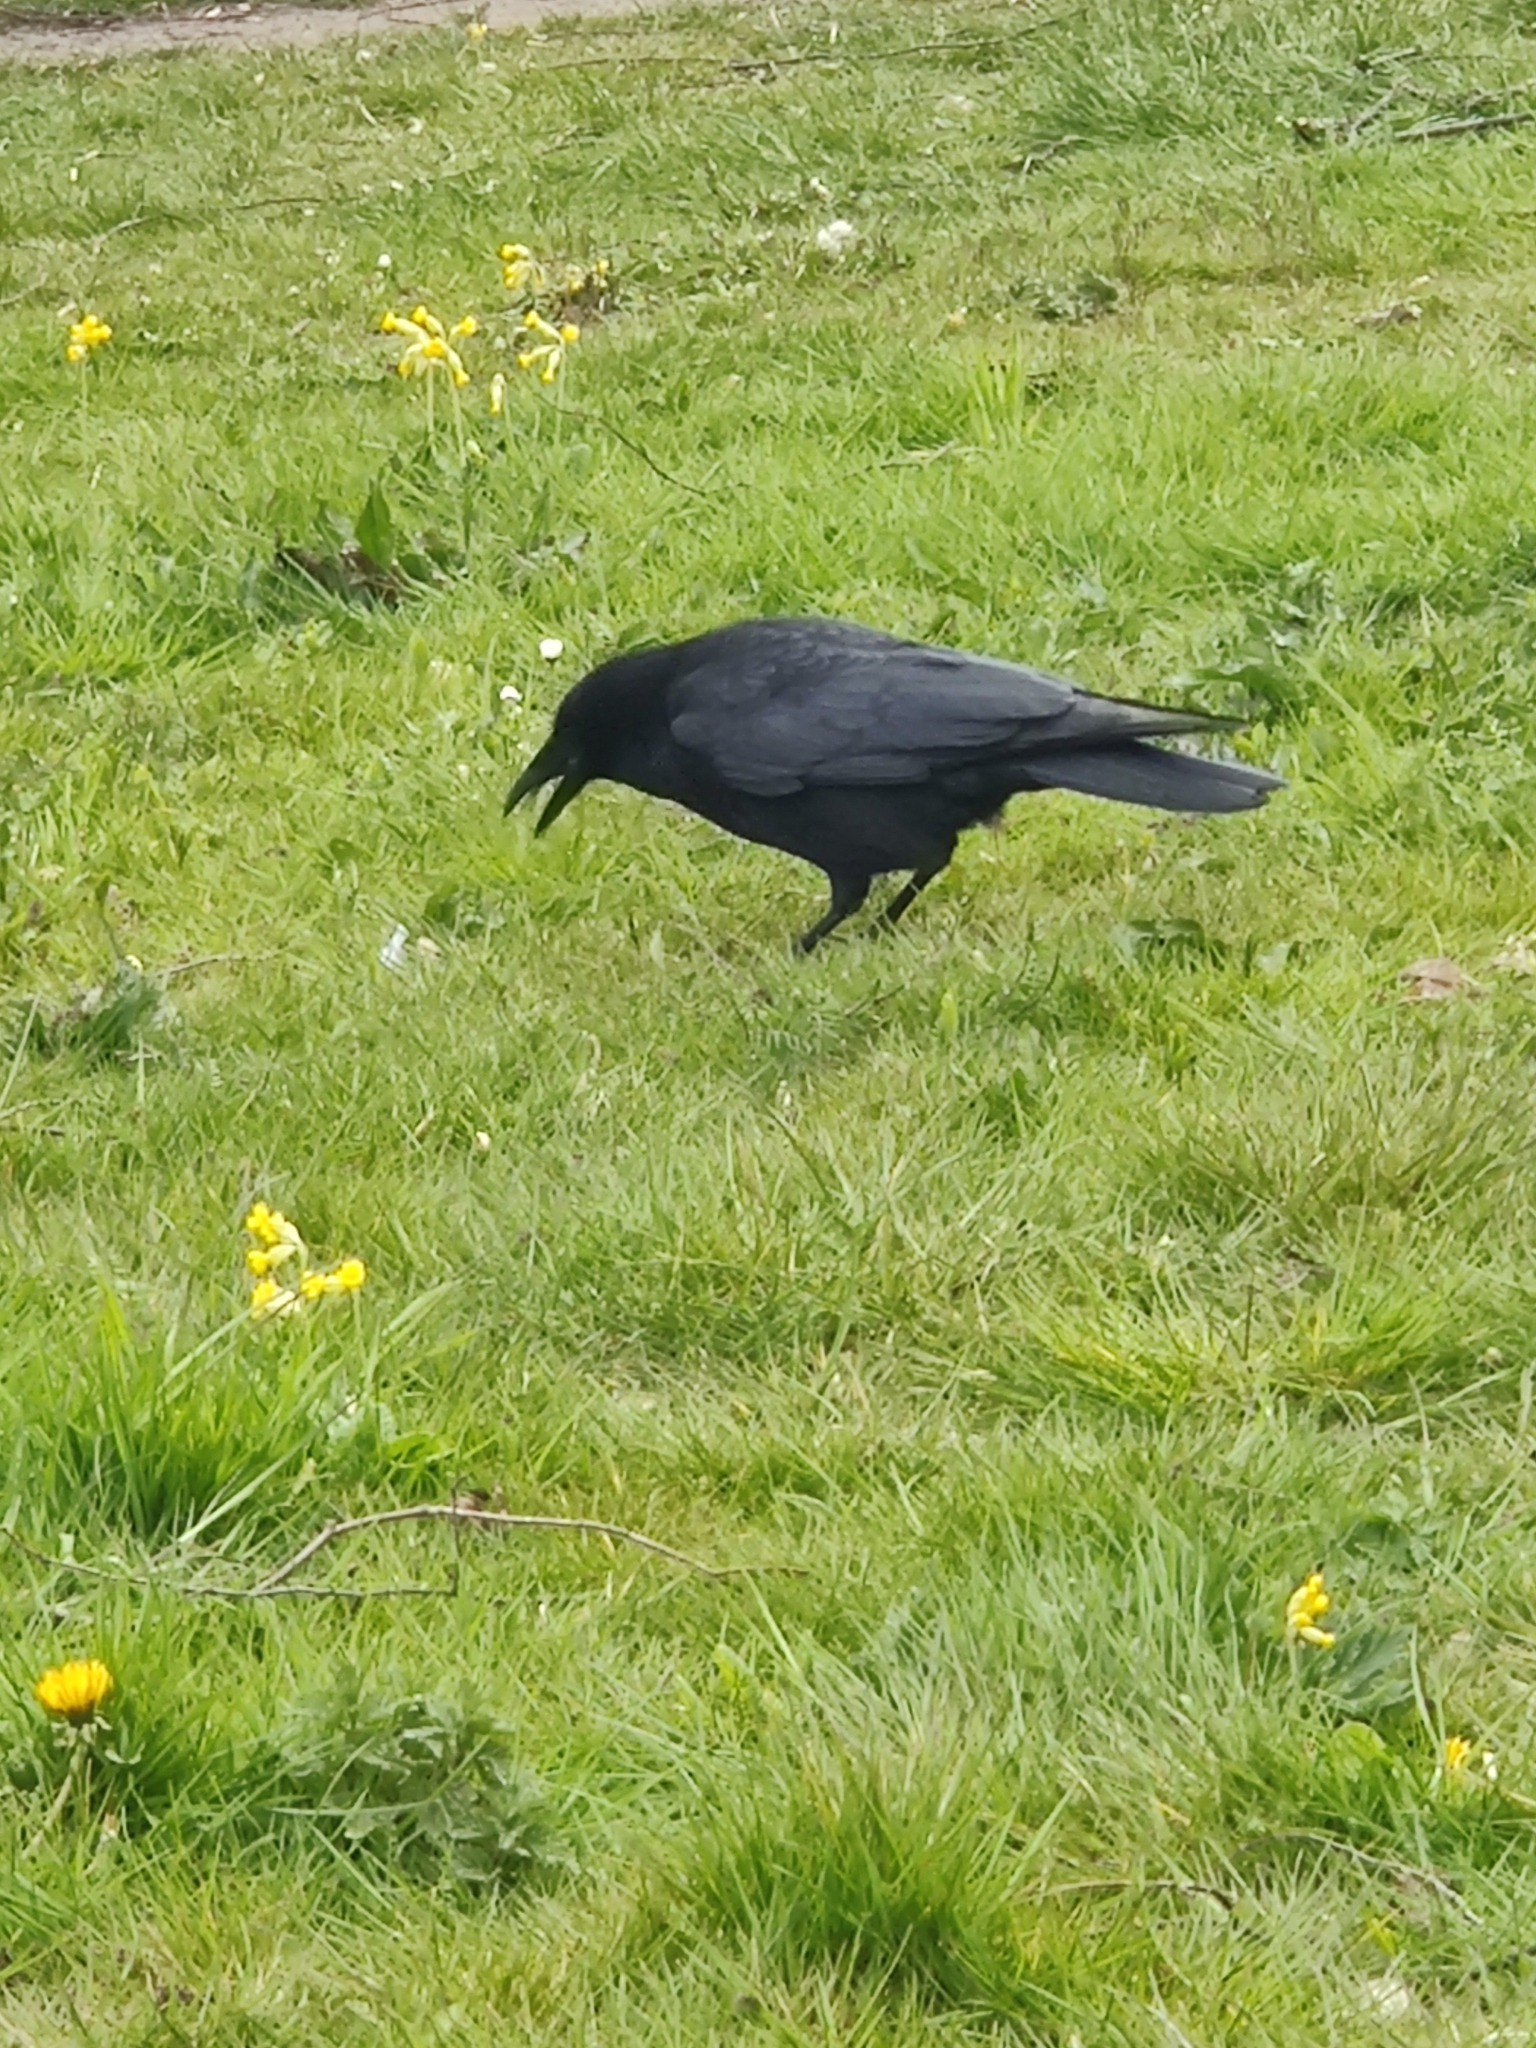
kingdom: Animalia
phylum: Chordata
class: Aves
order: Passeriformes
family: Corvidae
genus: Corvus
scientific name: Corvus corone
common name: Carrion crow
